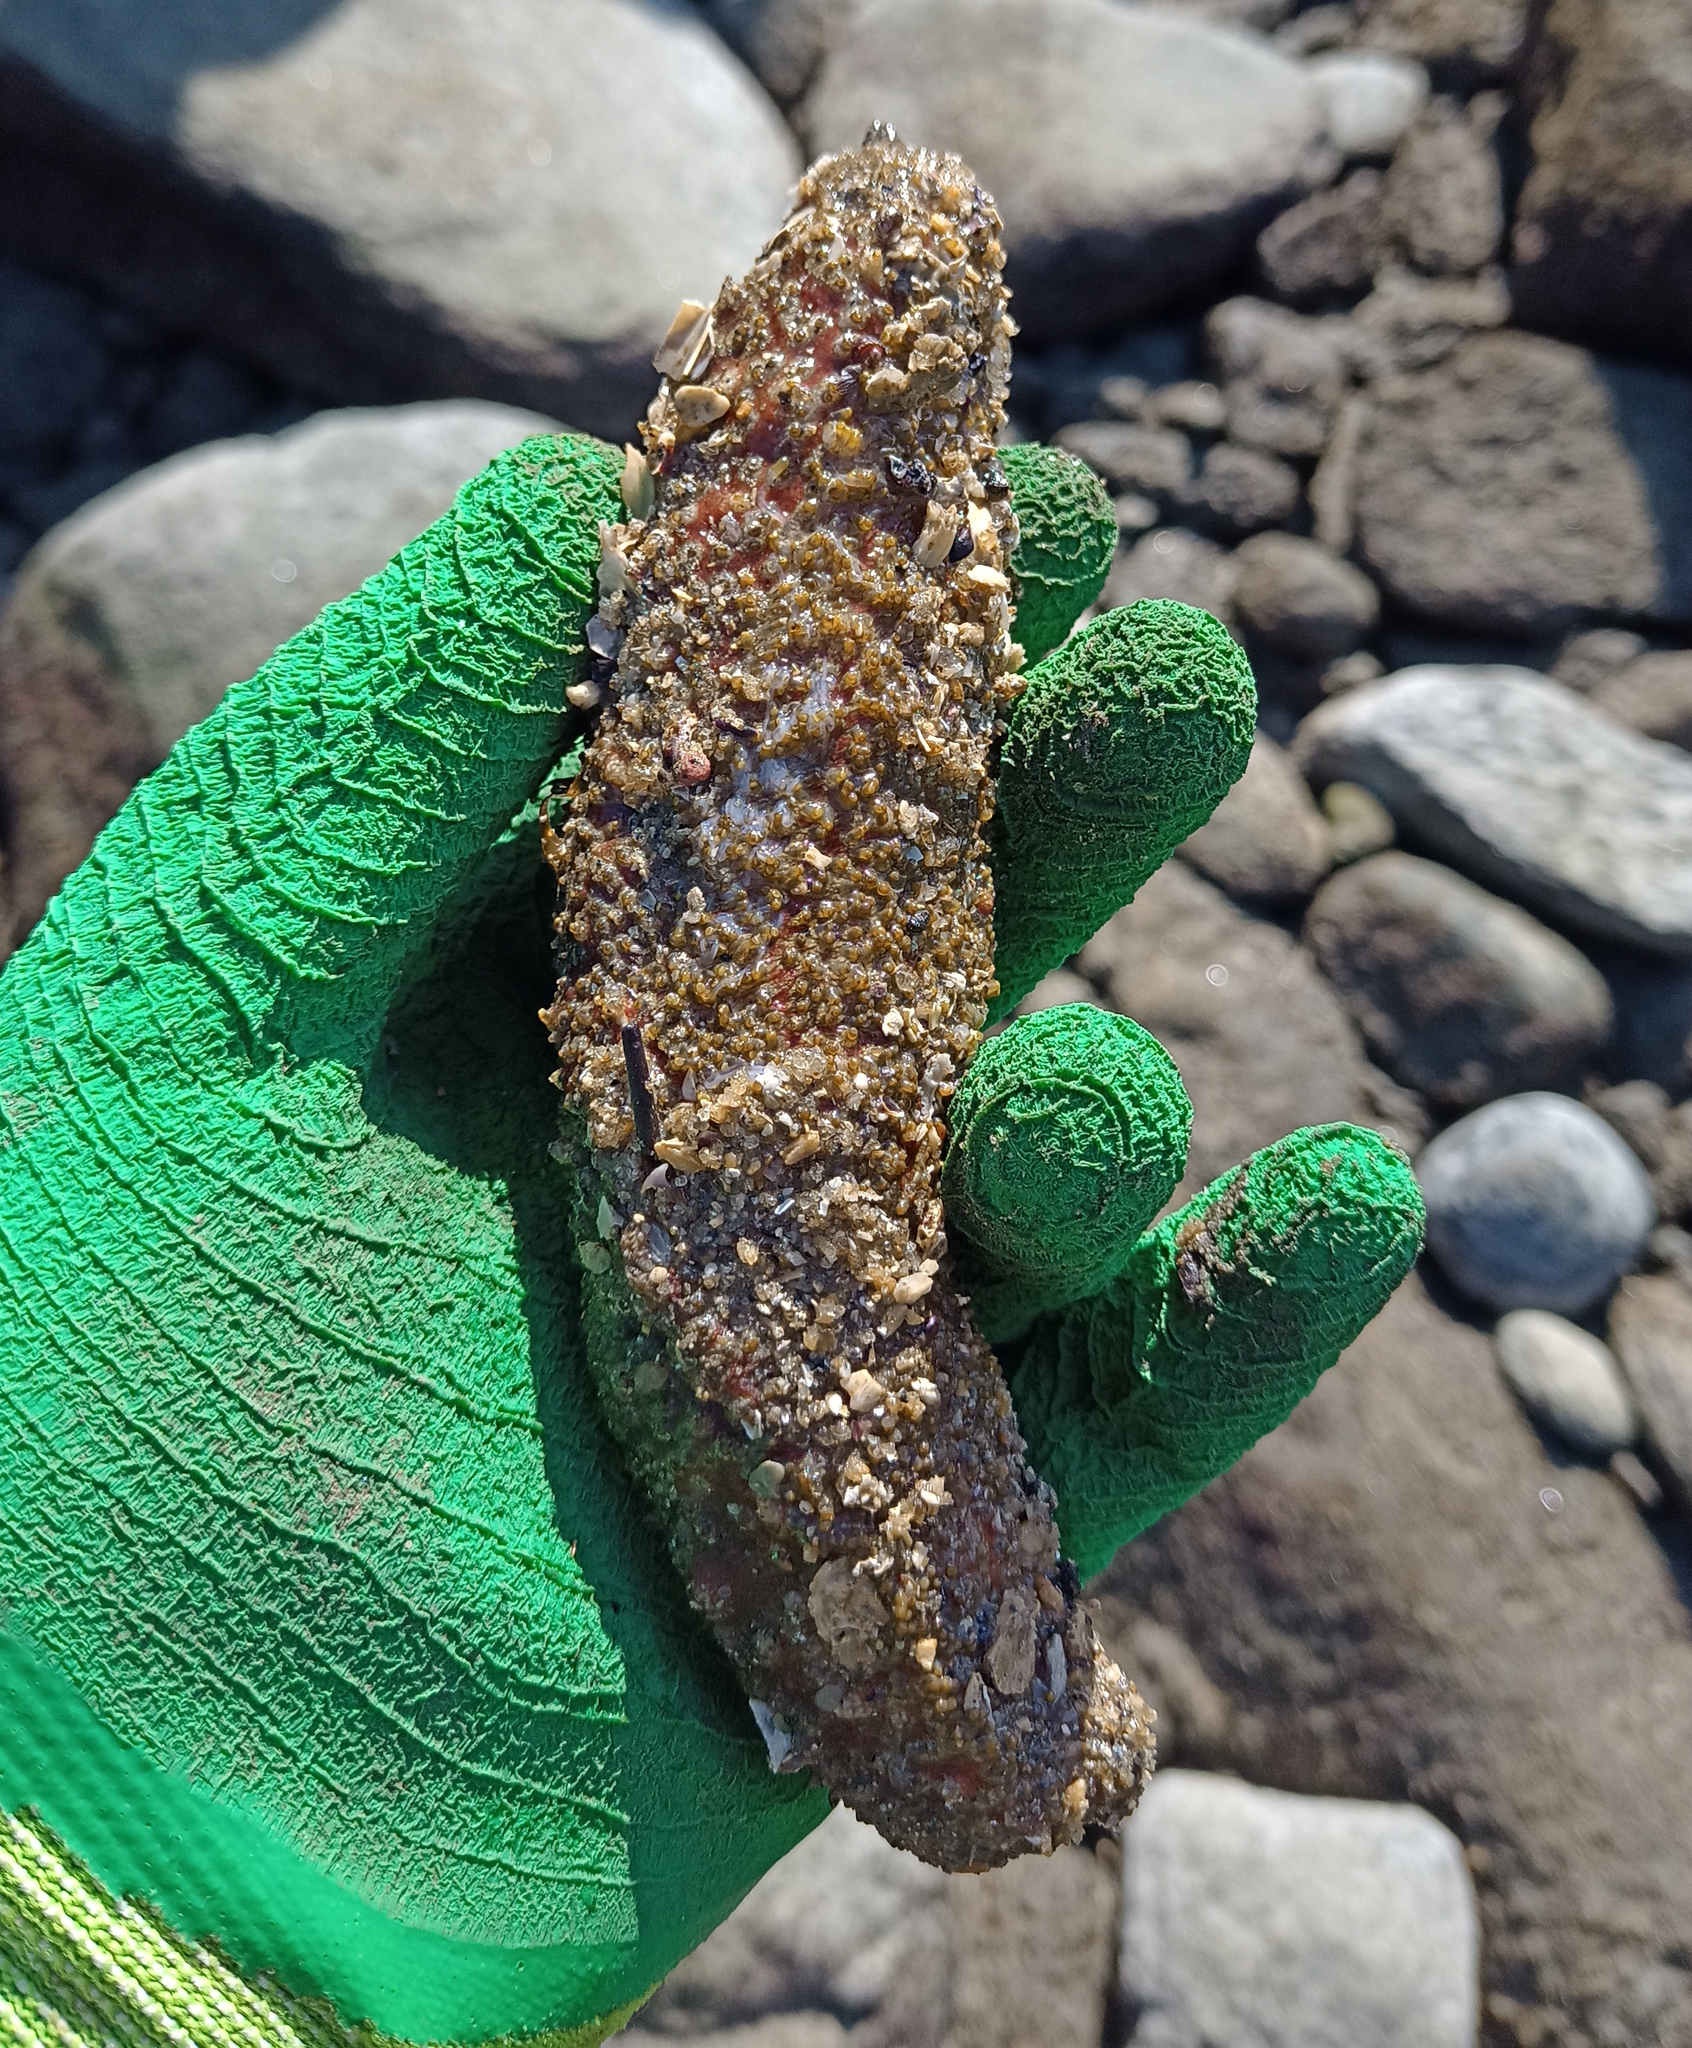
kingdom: Animalia
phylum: Echinodermata
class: Holothuroidea
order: Holothuriida
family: Holothuriidae
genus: Holothuria
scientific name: Holothuria grisea
